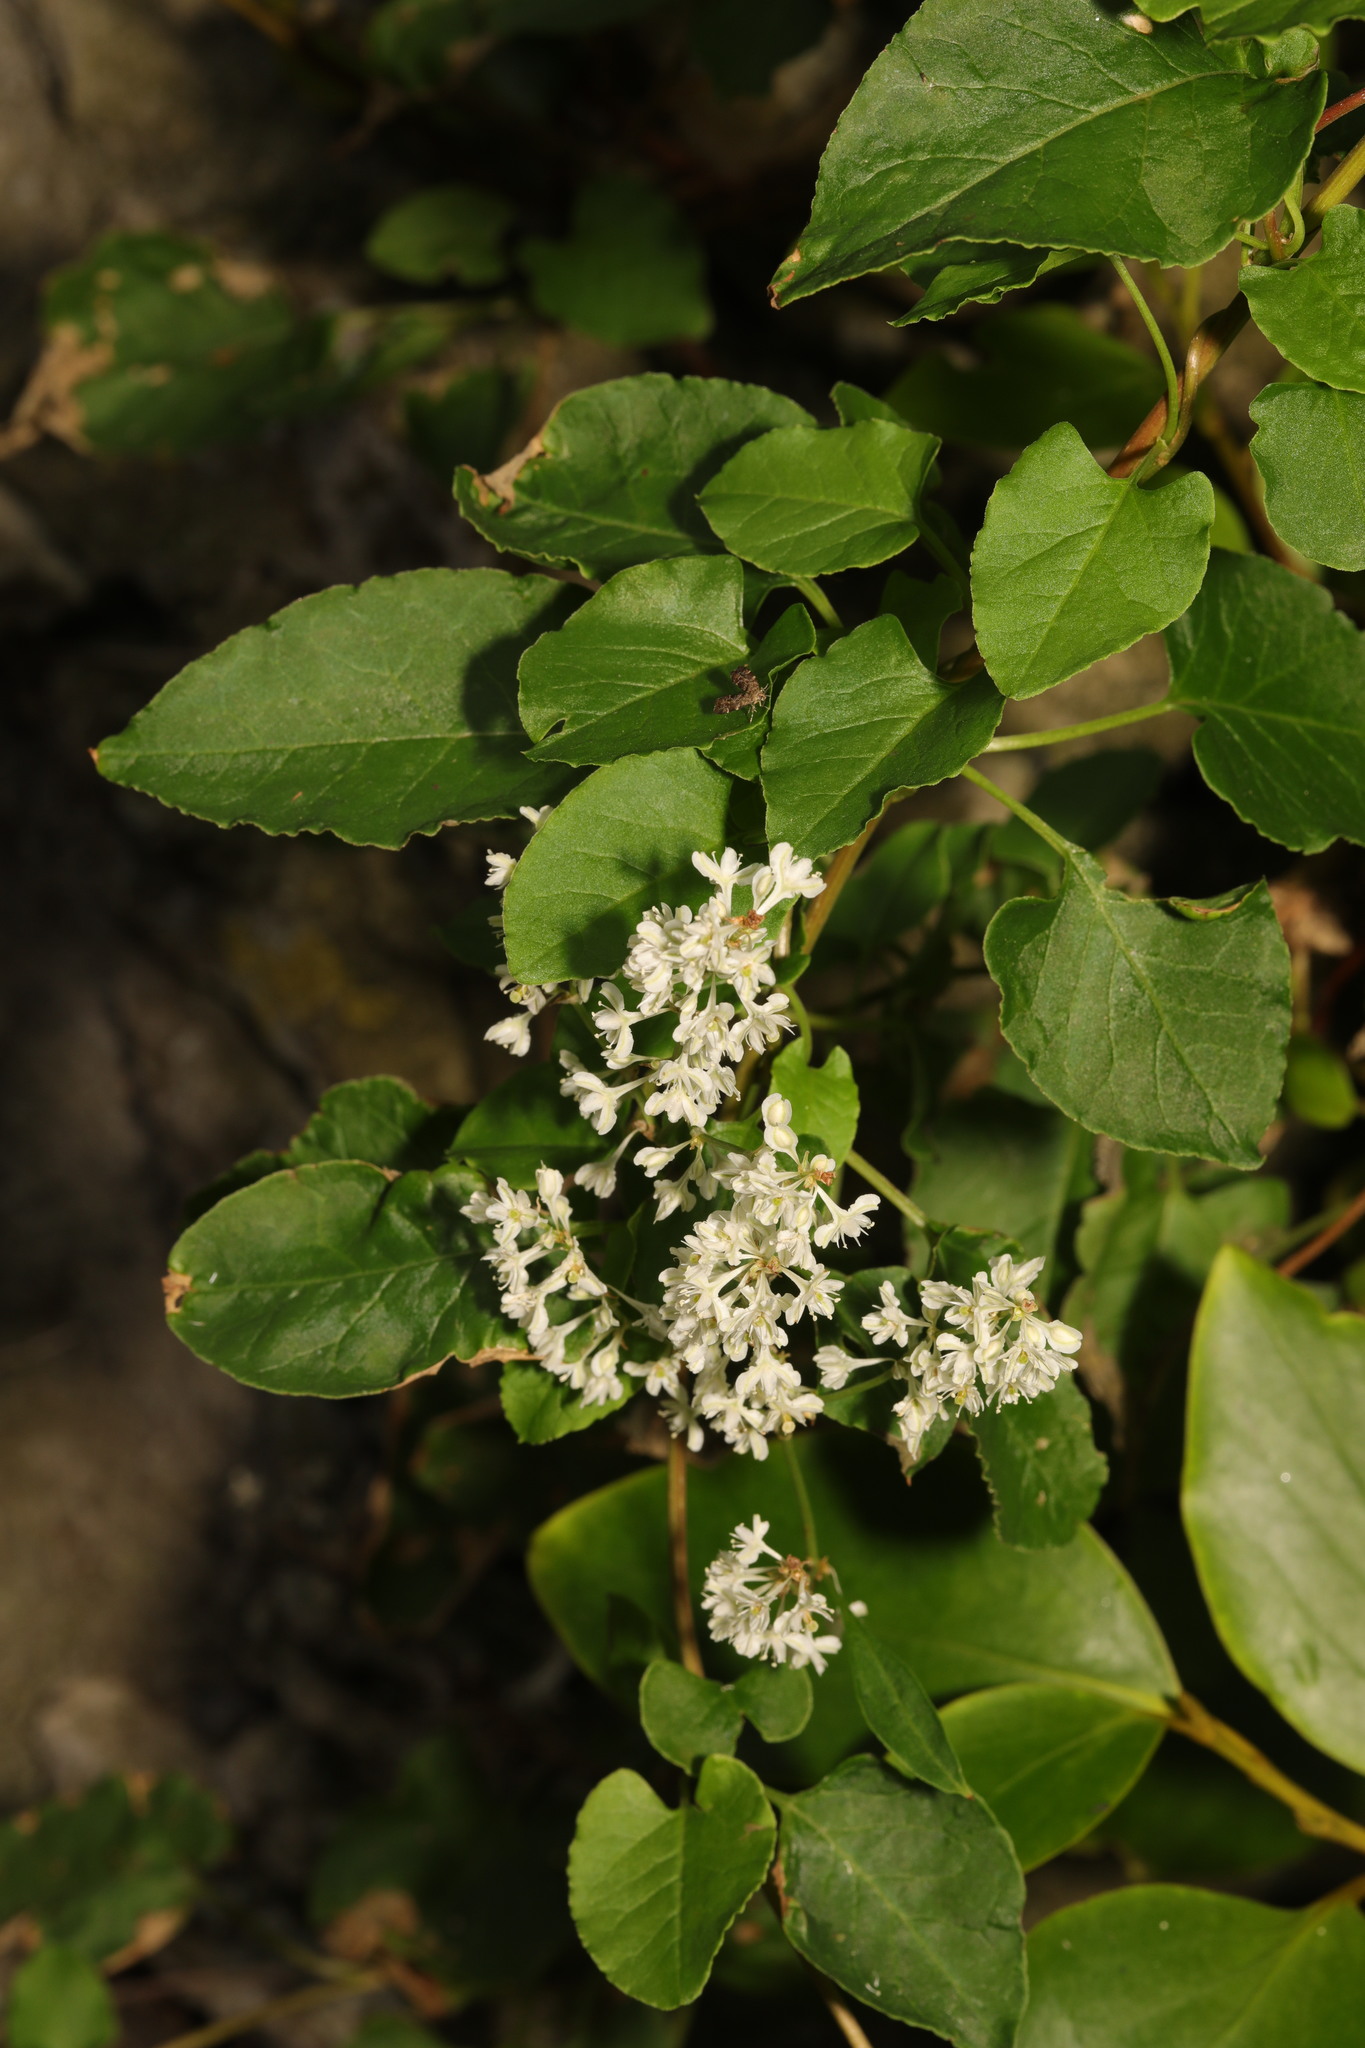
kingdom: Plantae
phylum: Tracheophyta
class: Magnoliopsida
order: Caryophyllales
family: Polygonaceae
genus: Fallopia
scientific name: Fallopia baldschuanica
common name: Russian-vine
